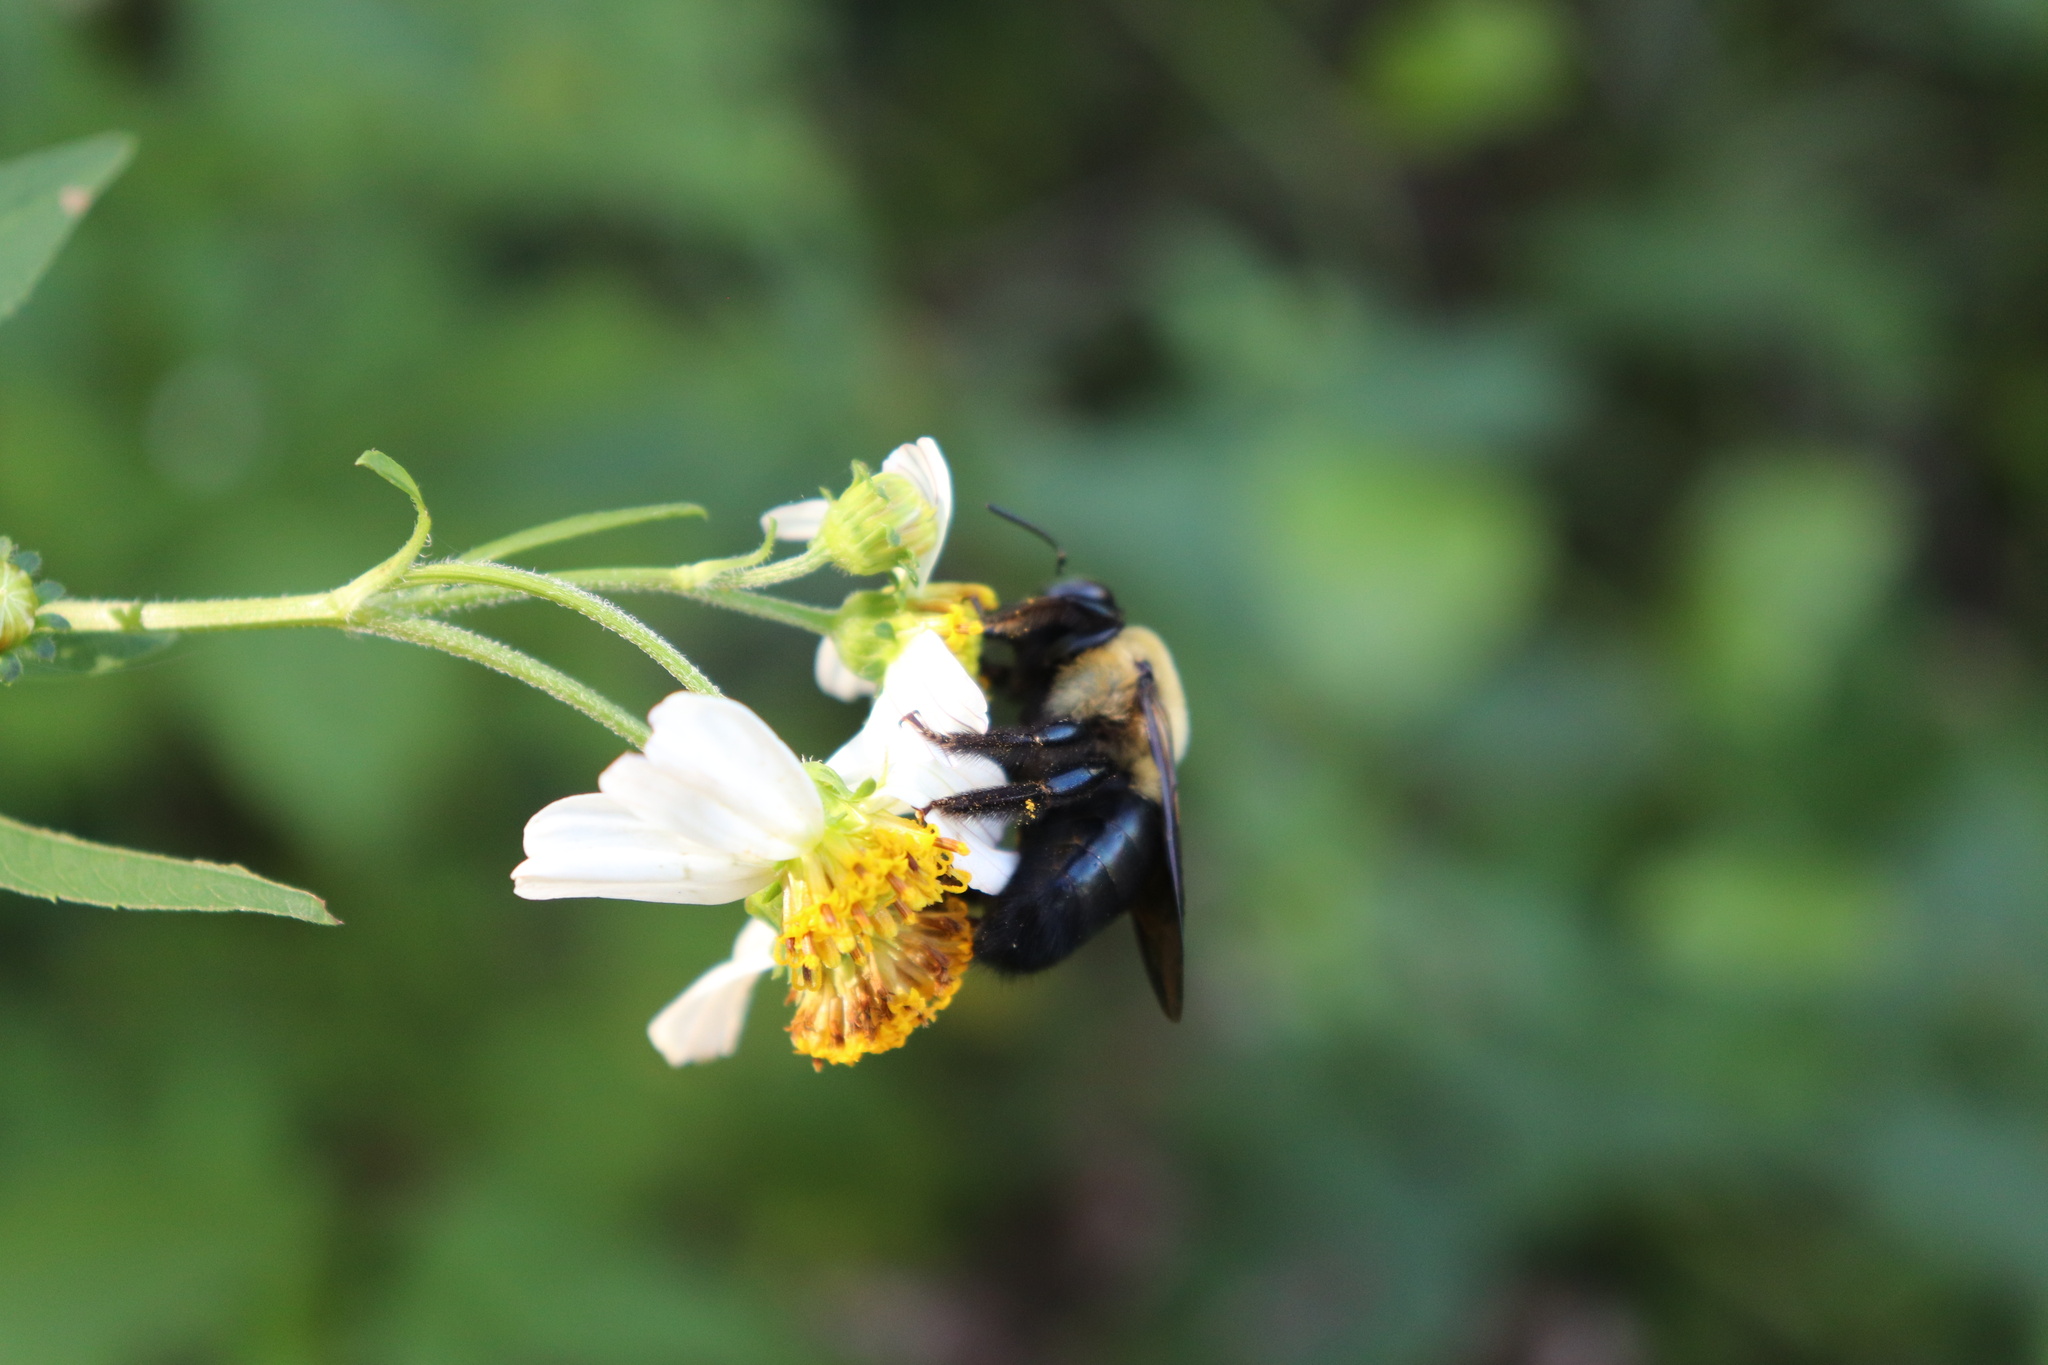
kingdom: Animalia
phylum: Arthropoda
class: Insecta
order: Hymenoptera
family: Apidae
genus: Xylocopa
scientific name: Xylocopa virginica
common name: Carpenter bee
